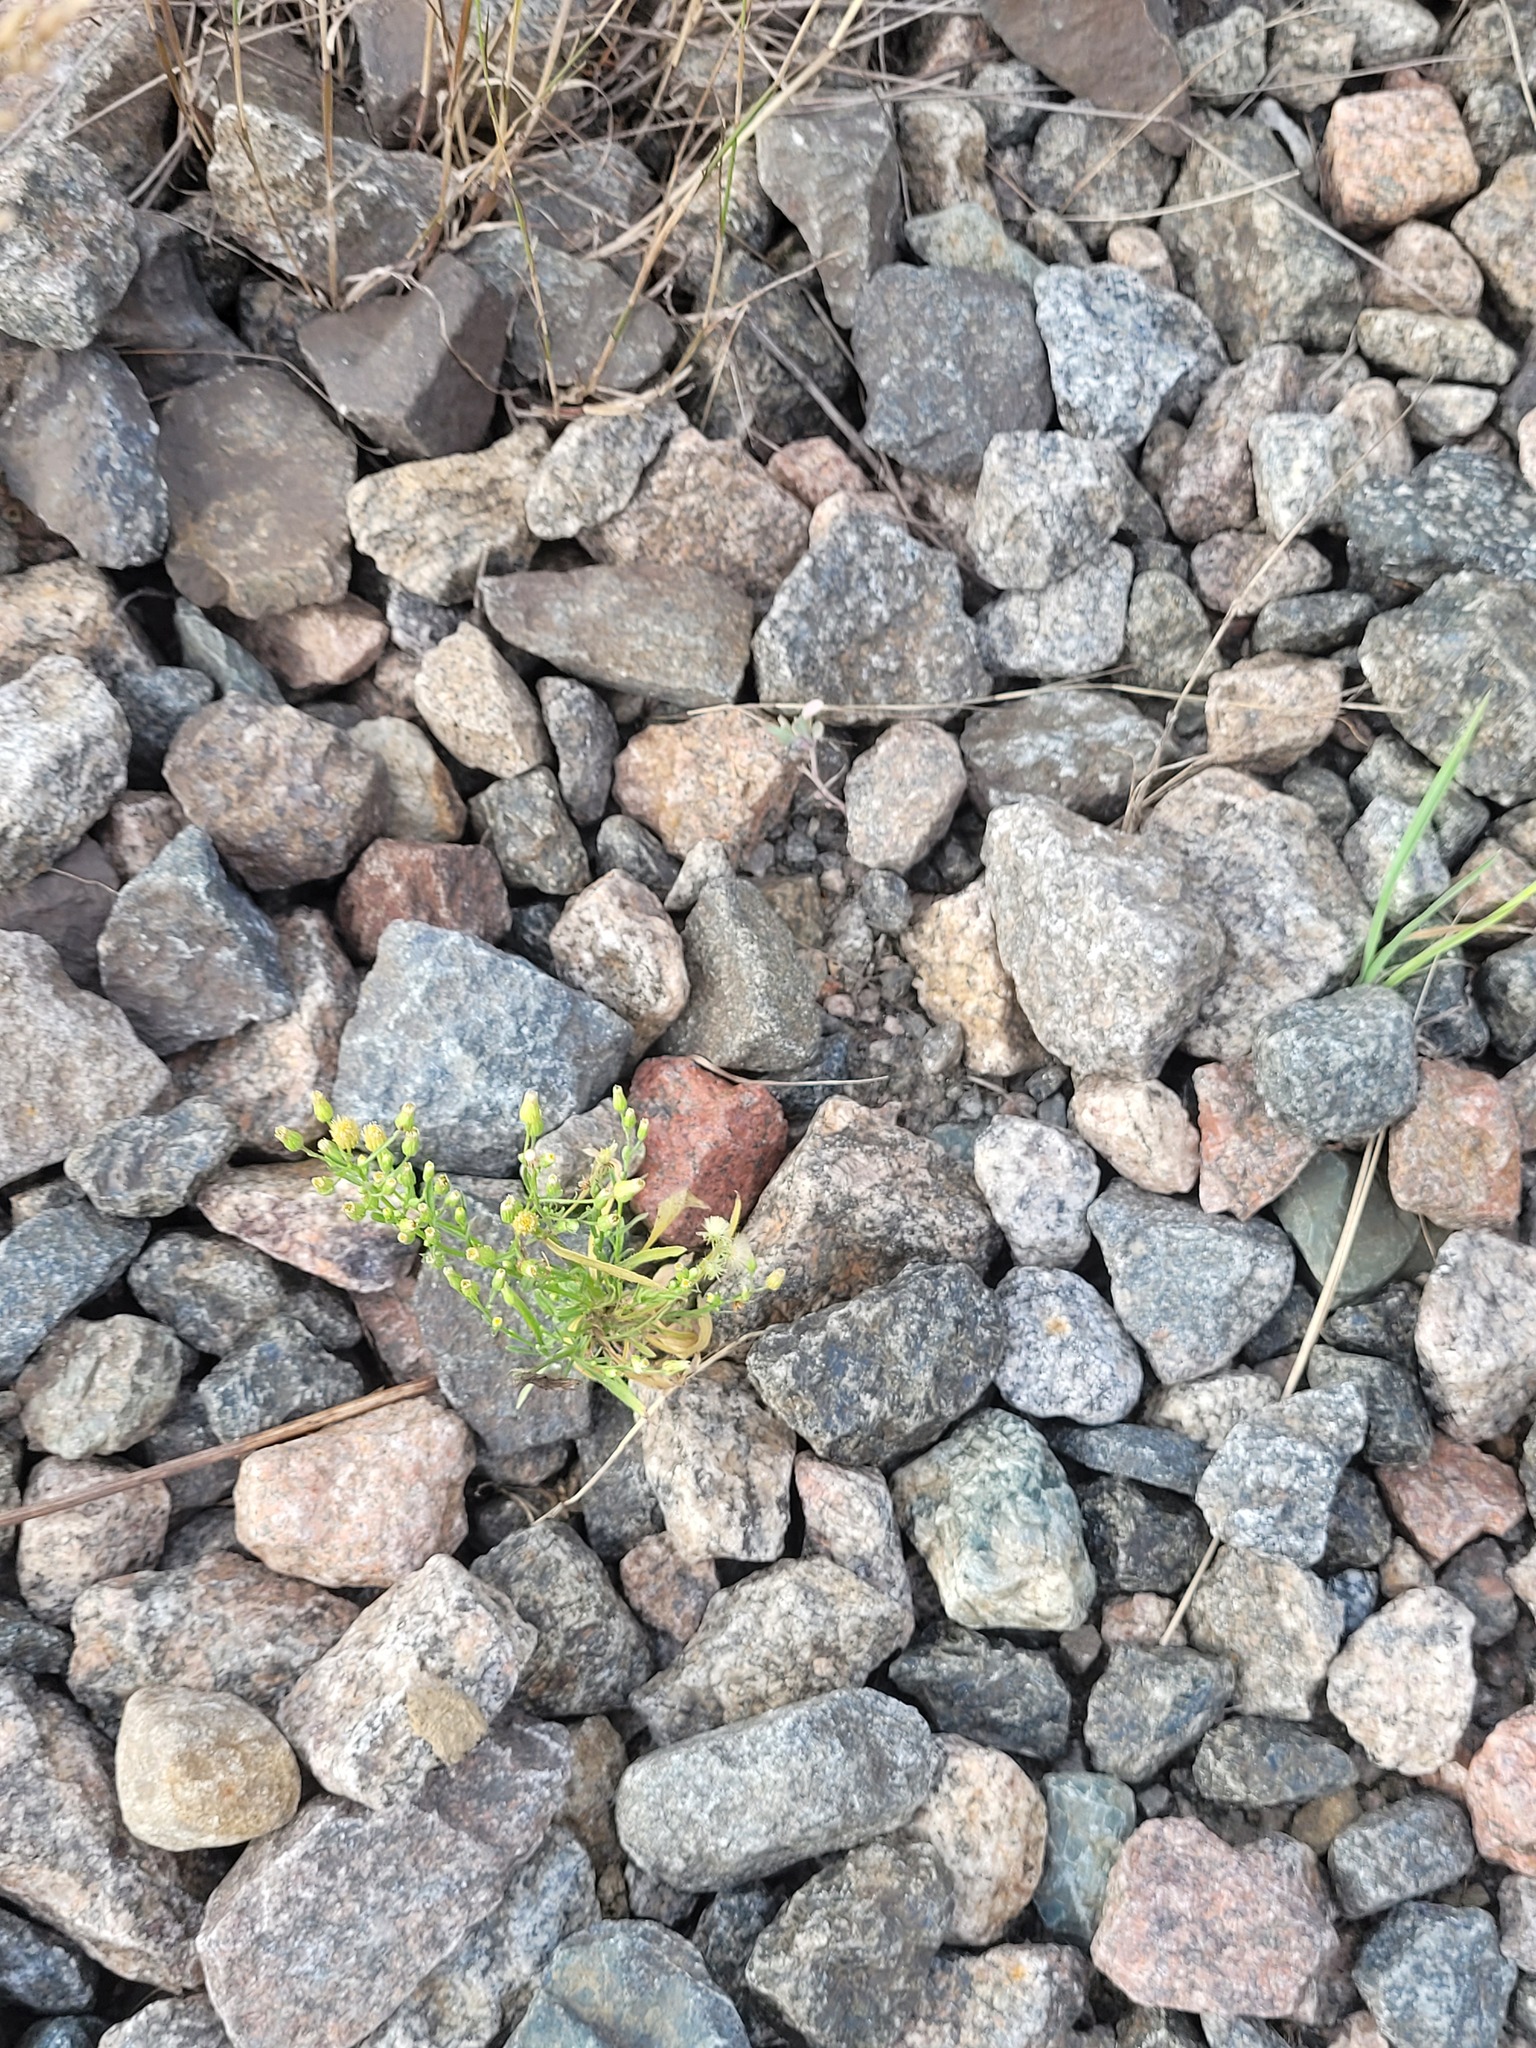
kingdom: Plantae
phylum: Tracheophyta
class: Magnoliopsida
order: Asterales
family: Asteraceae
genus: Erigeron
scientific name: Erigeron canadensis
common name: Canadian fleabane
